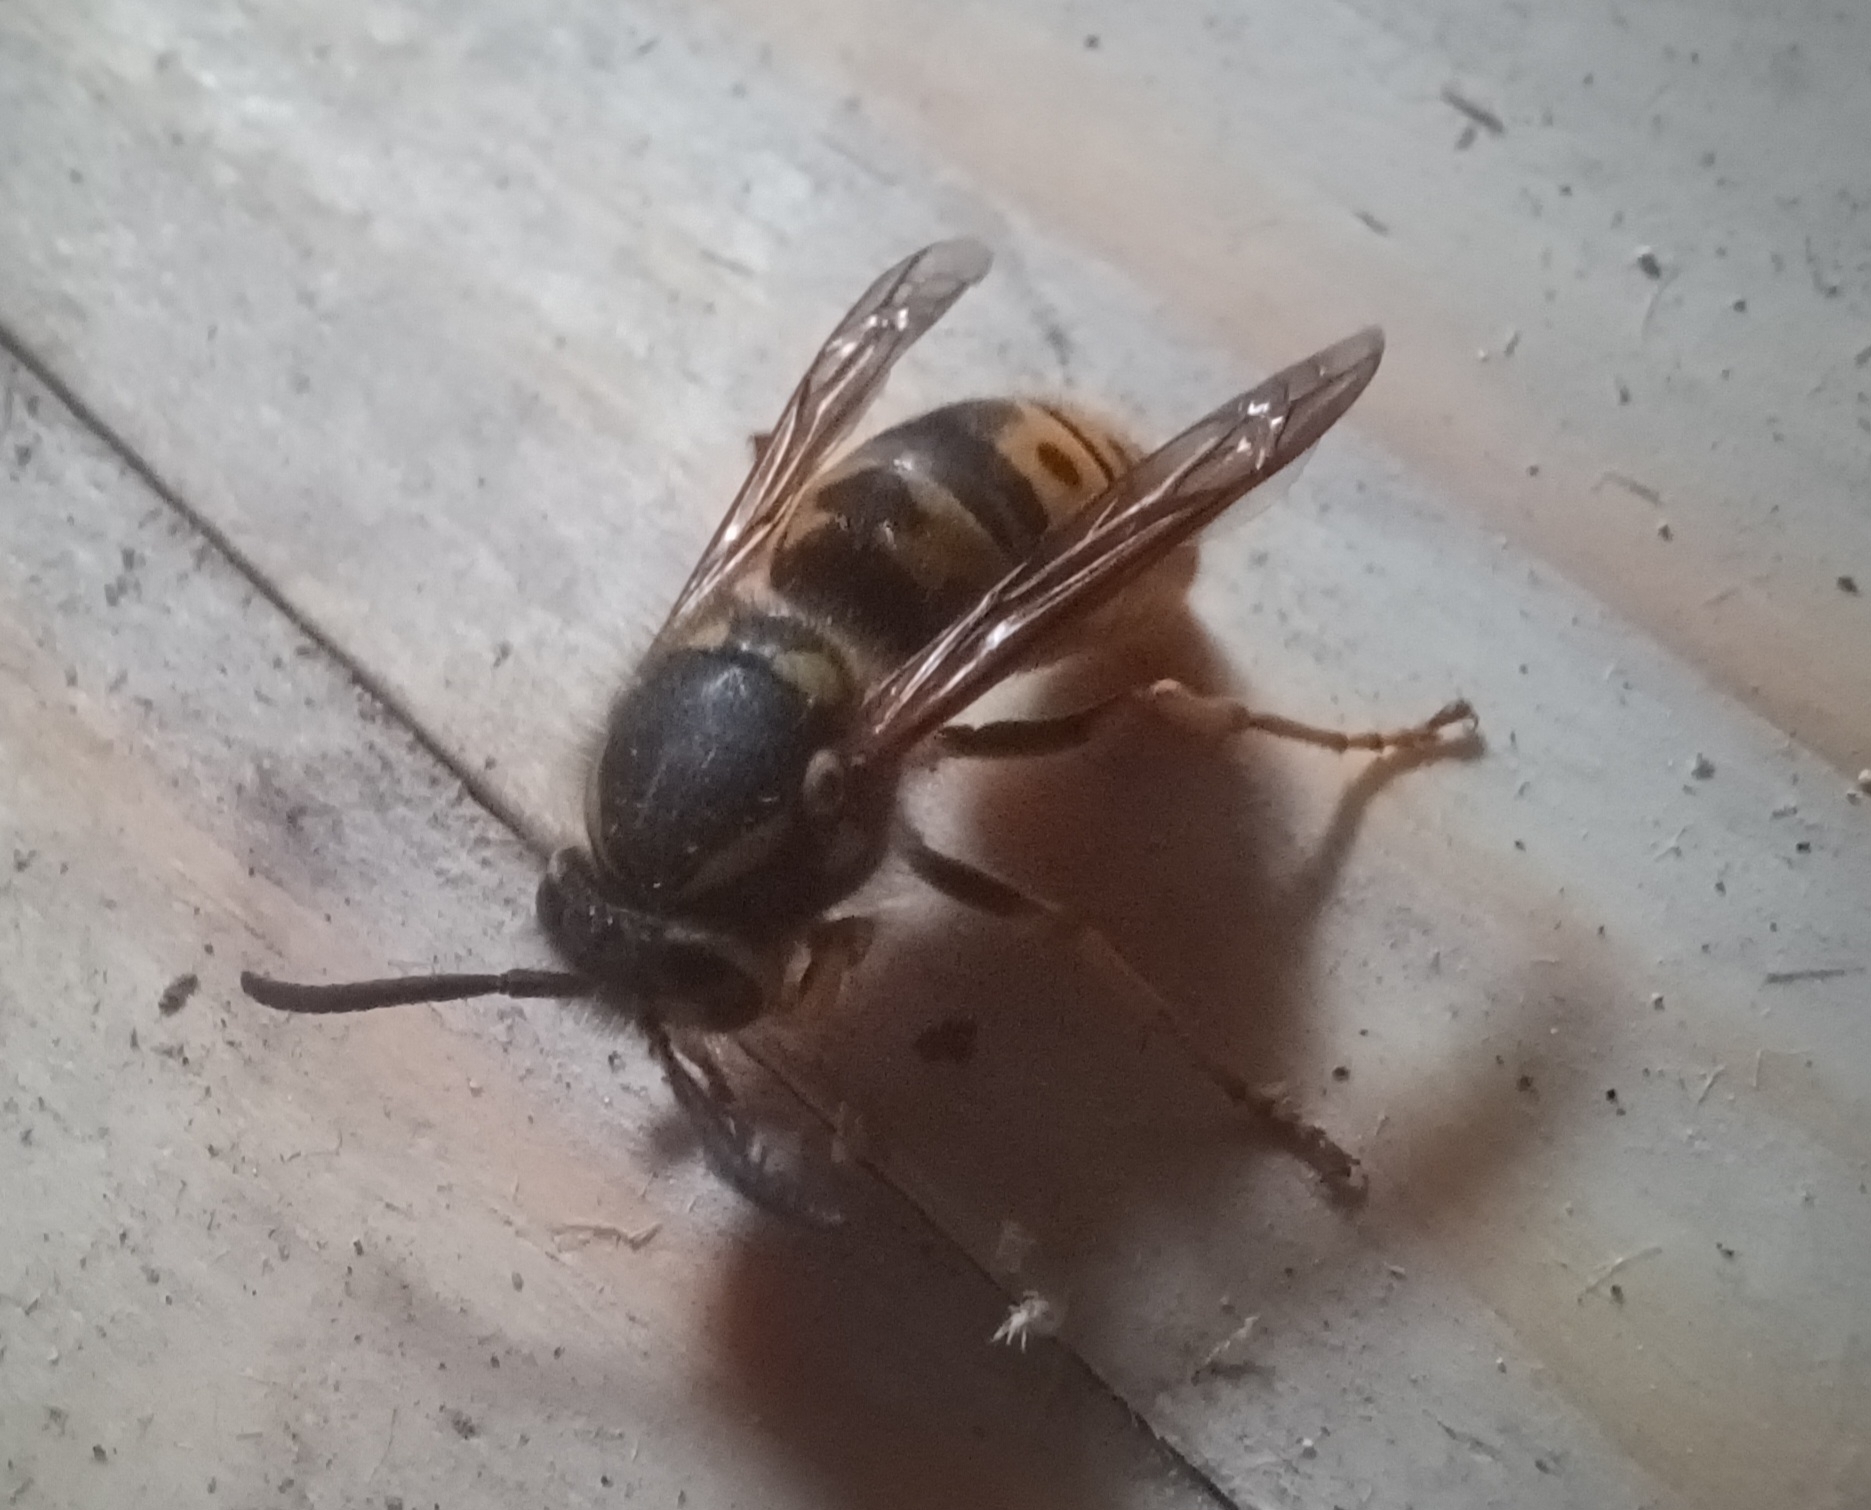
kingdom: Animalia
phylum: Arthropoda
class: Insecta
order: Hymenoptera
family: Vespidae
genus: Vespula
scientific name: Vespula germanica
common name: German wasp
